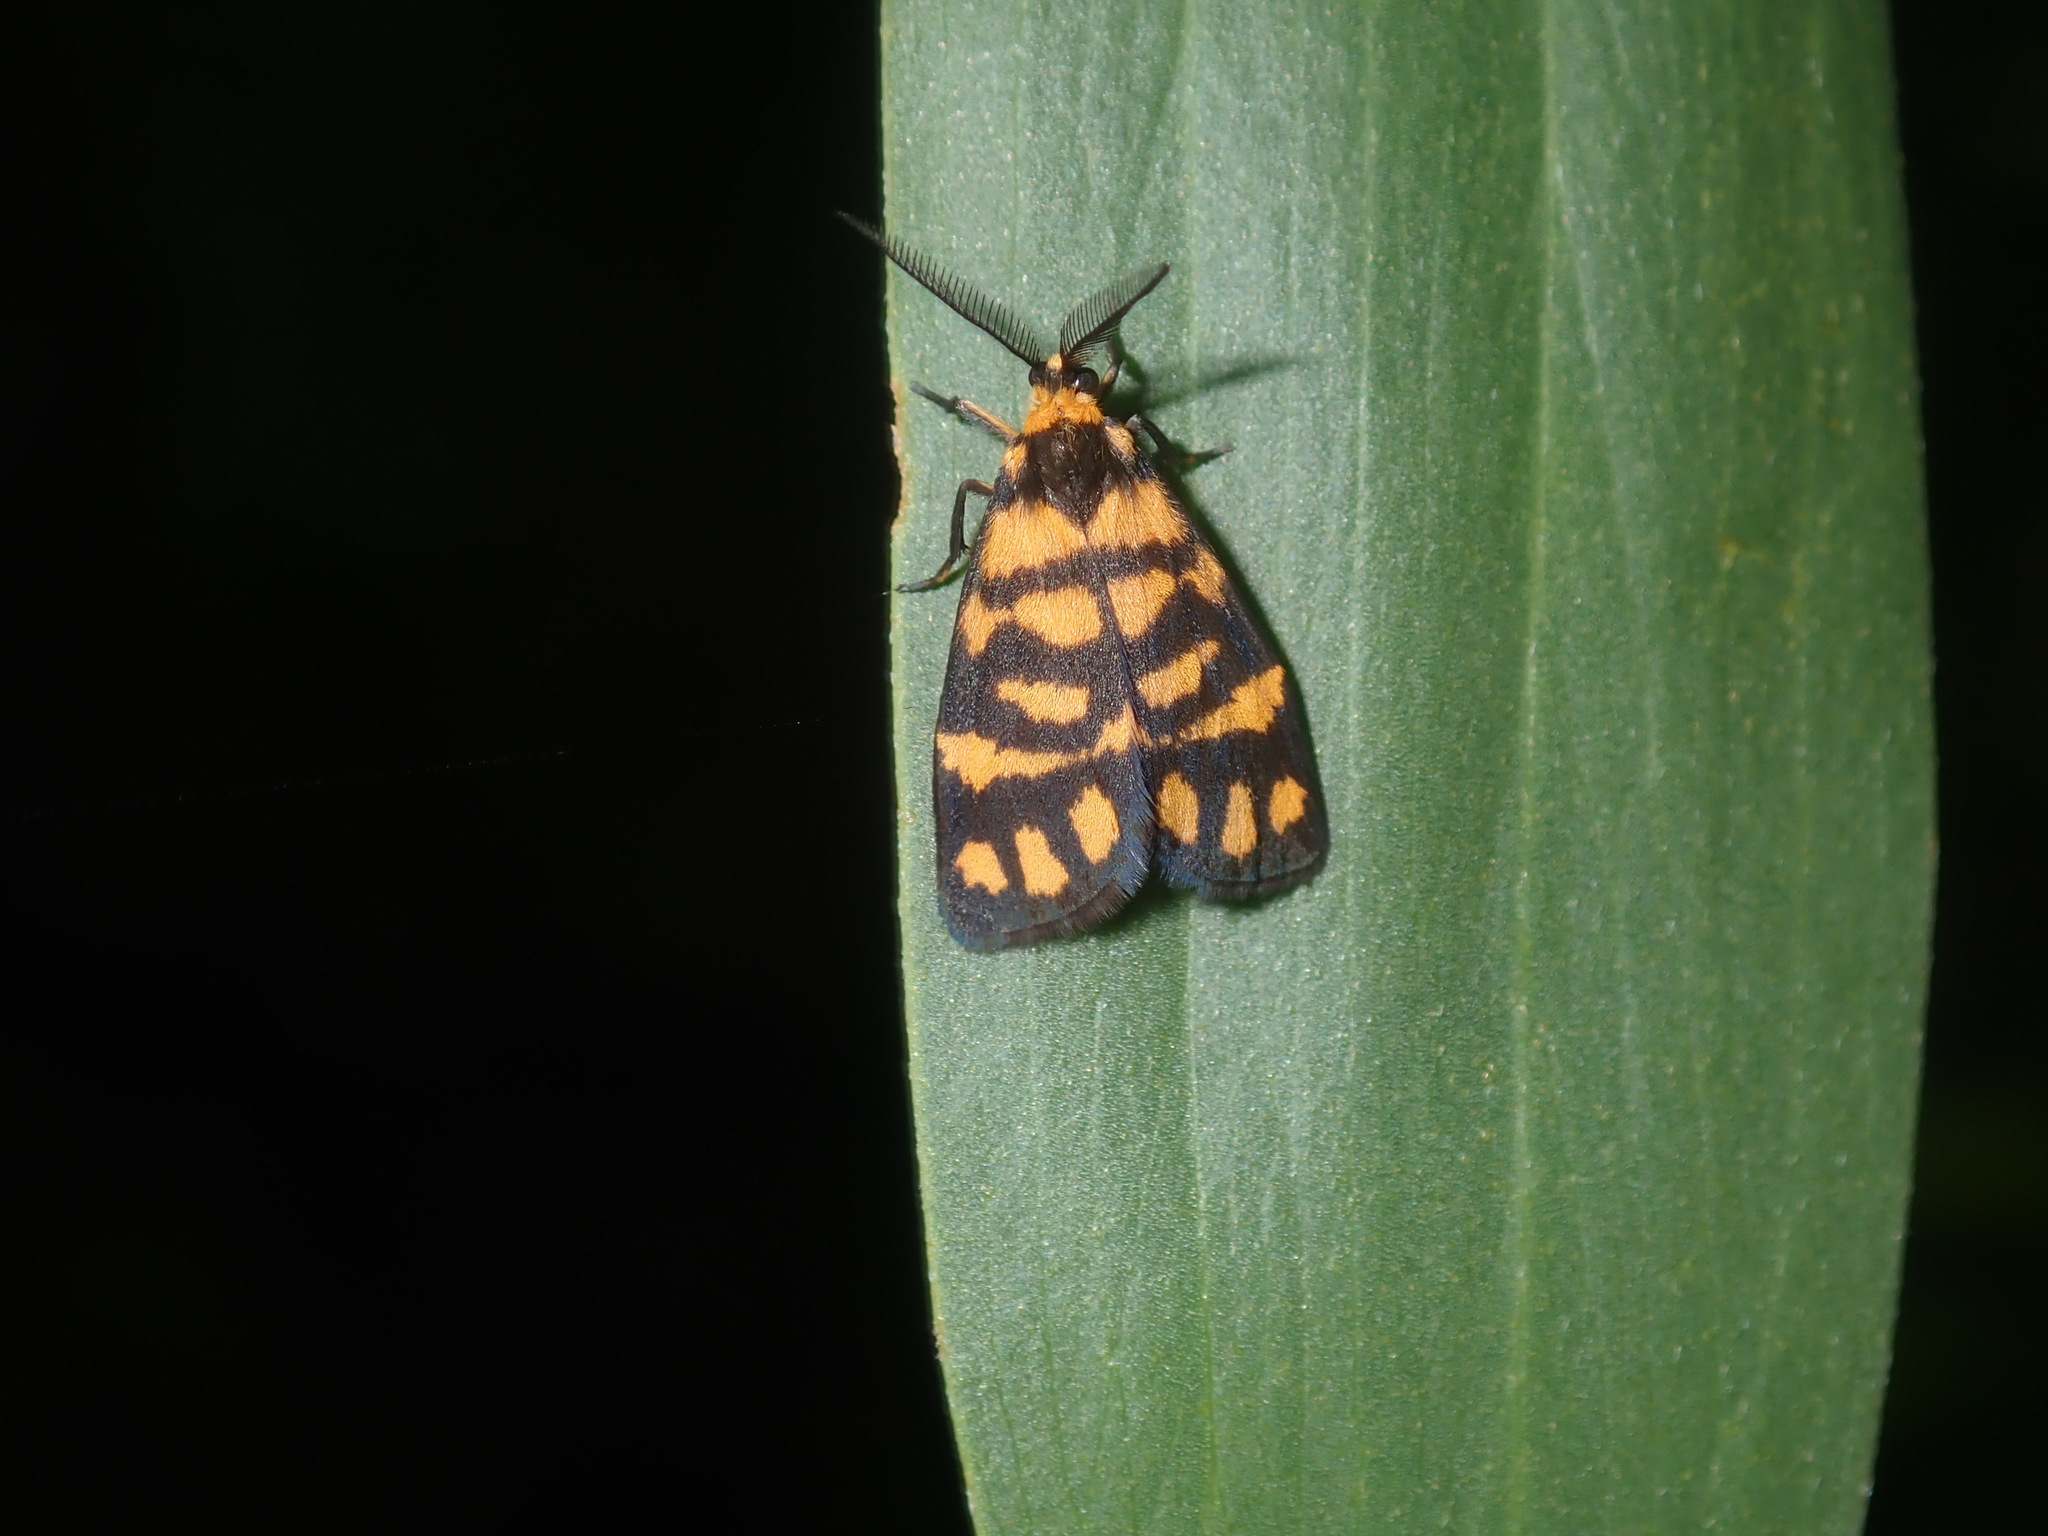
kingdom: Animalia
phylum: Arthropoda
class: Insecta
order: Lepidoptera
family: Erebidae
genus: Asura
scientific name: Asura lydia
